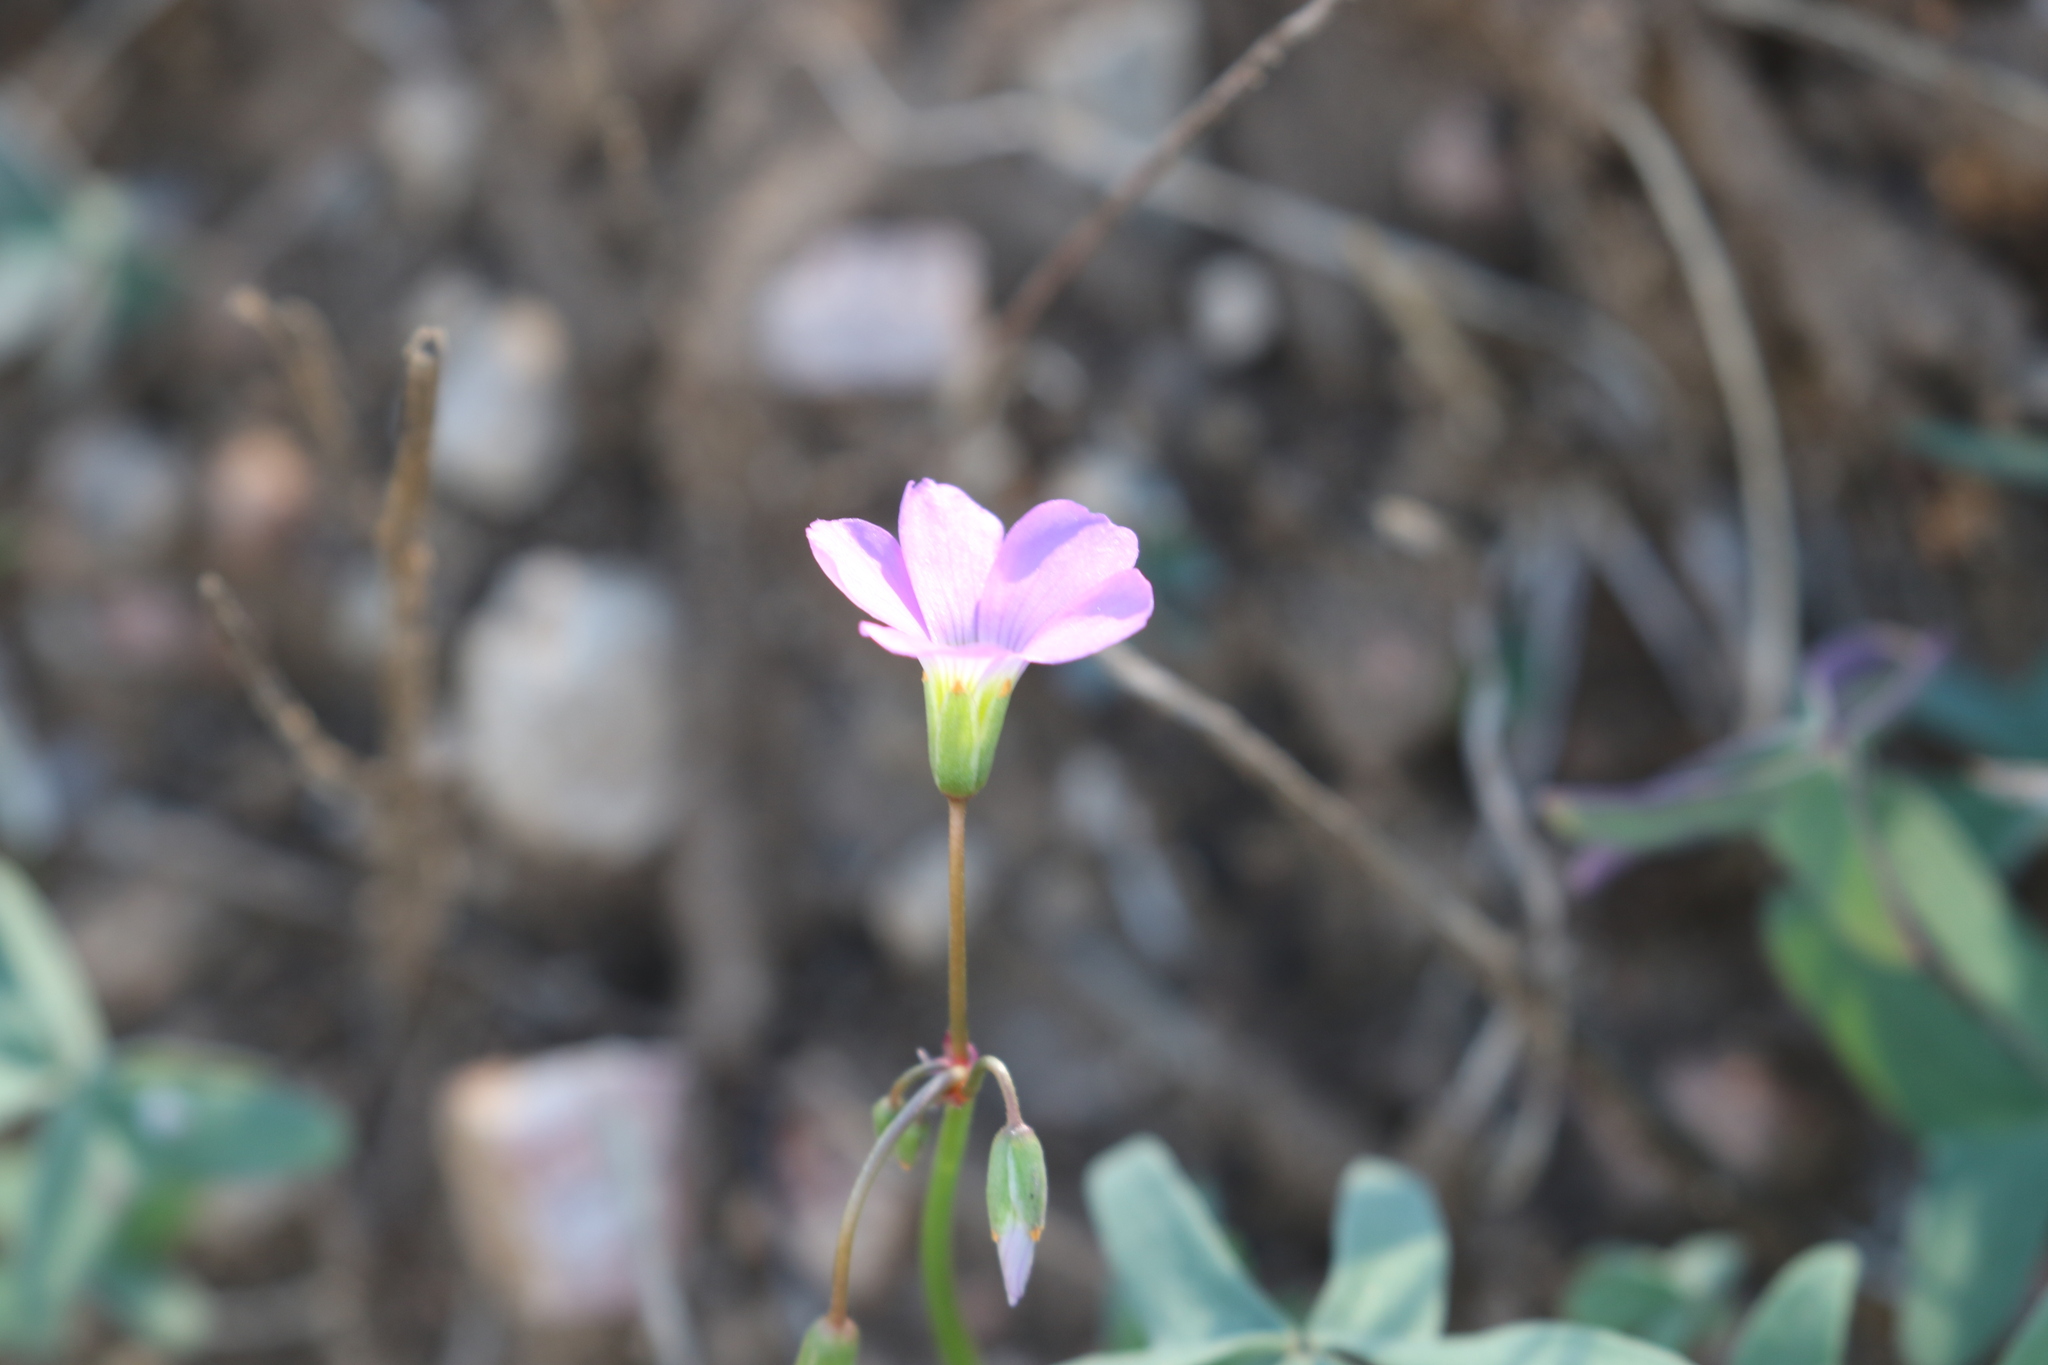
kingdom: Plantae
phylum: Tracheophyta
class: Magnoliopsida
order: Oxalidales
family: Oxalidaceae
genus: Oxalis
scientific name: Oxalis drummondii
